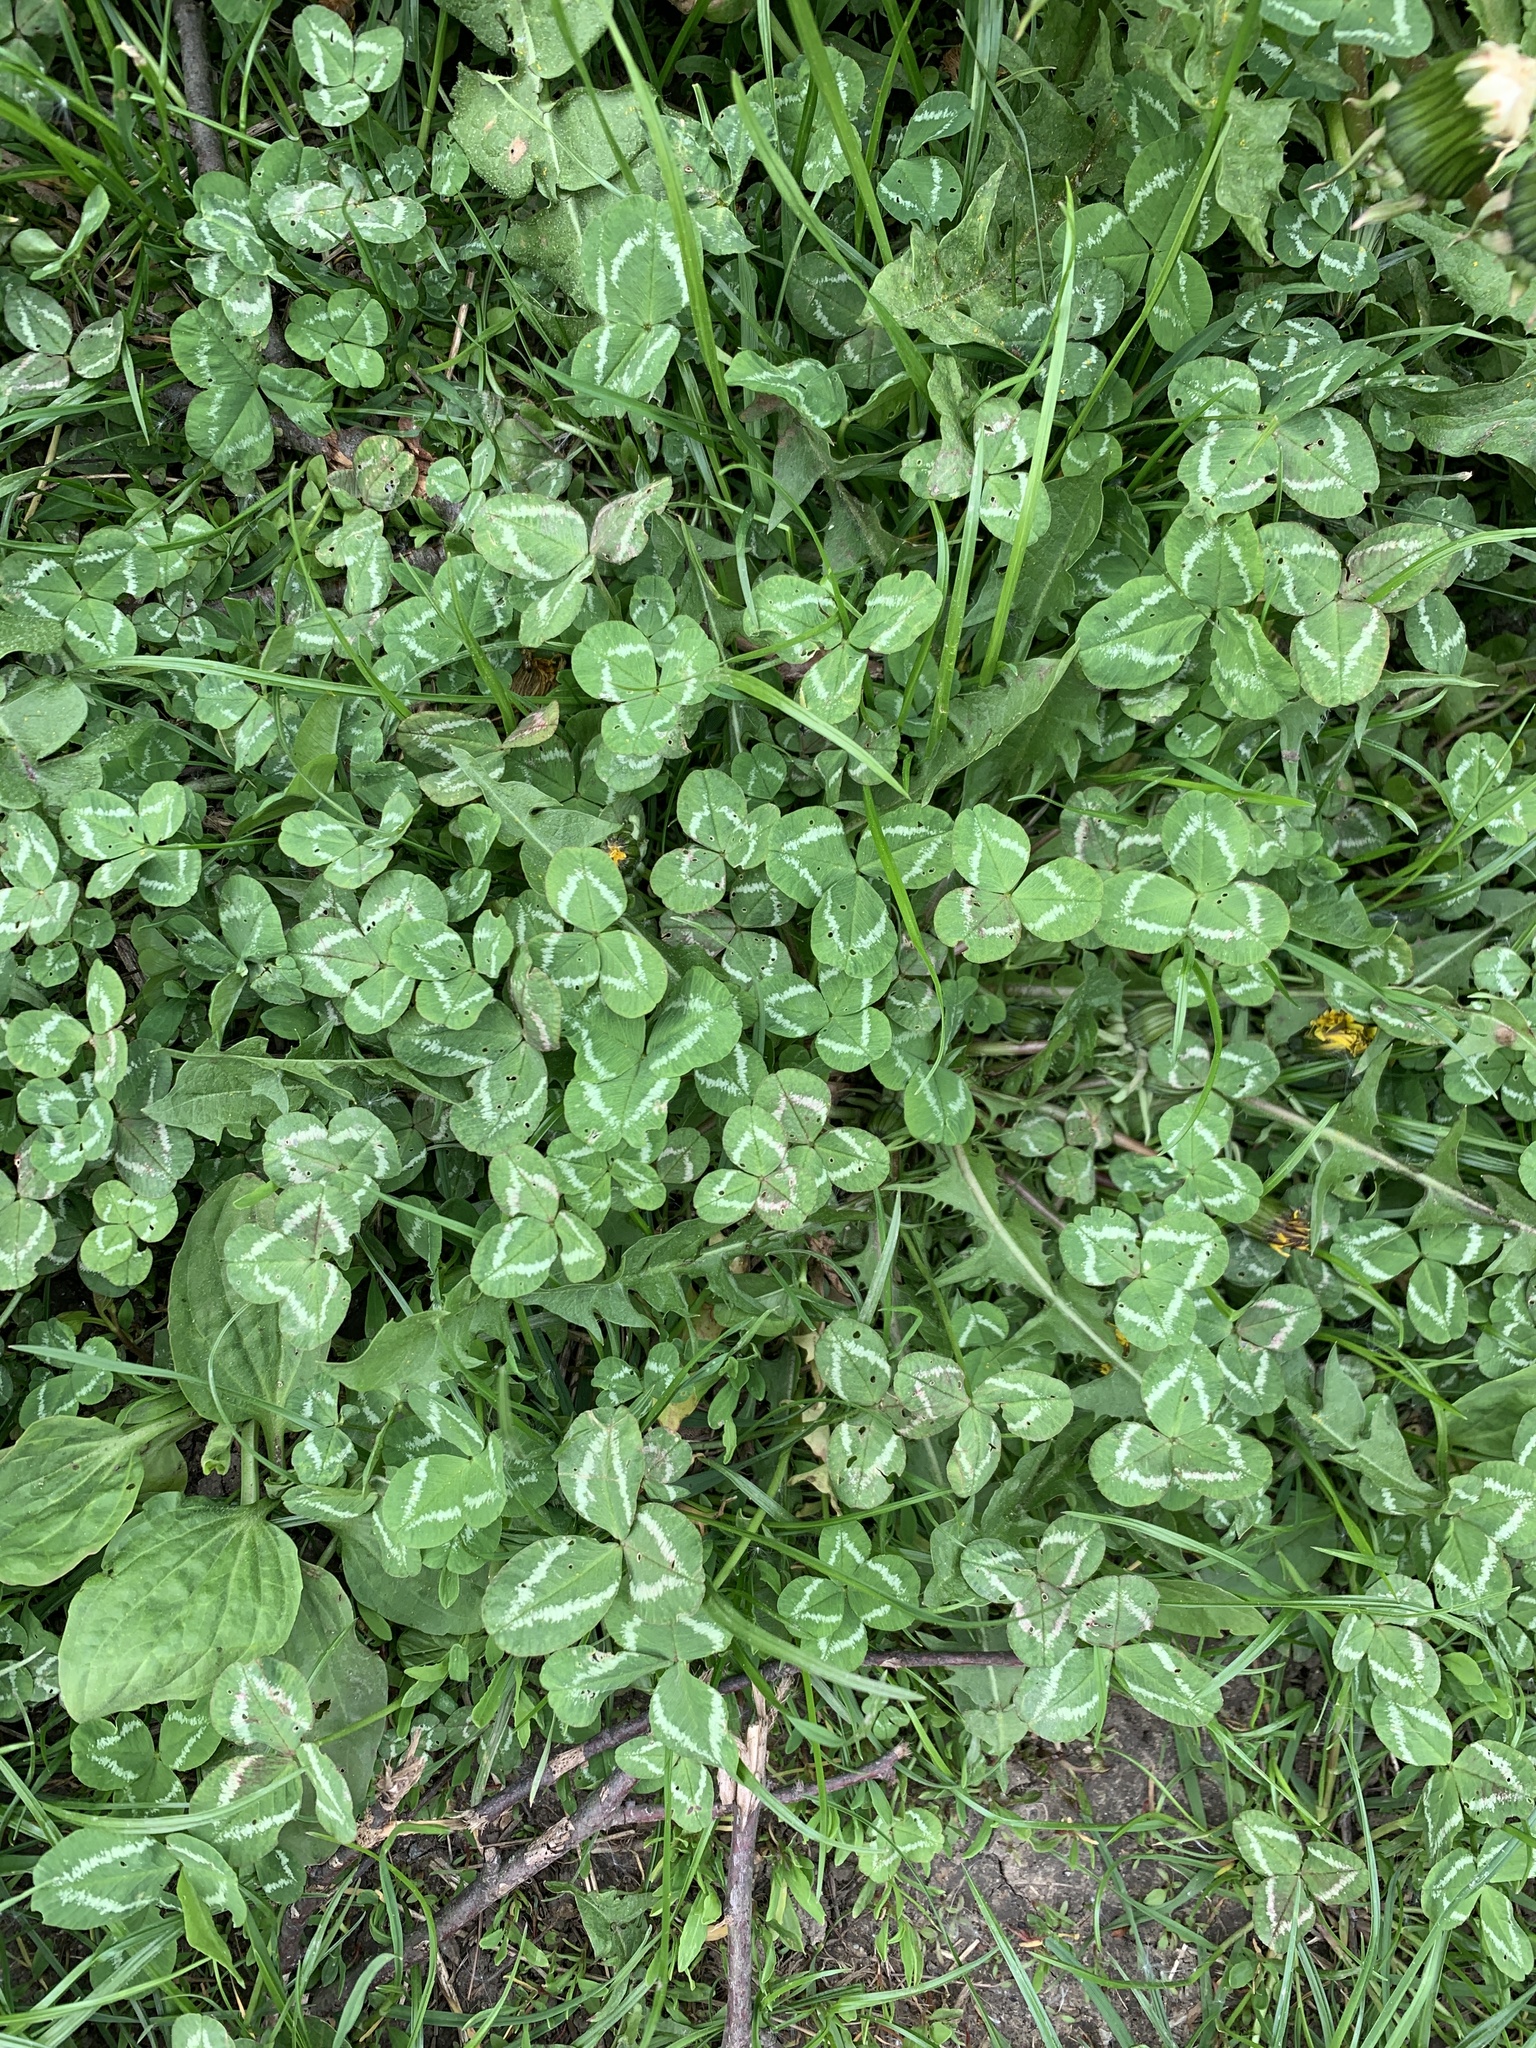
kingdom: Plantae
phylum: Tracheophyta
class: Magnoliopsida
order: Fabales
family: Fabaceae
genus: Trifolium
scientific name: Trifolium repens
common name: White clover
